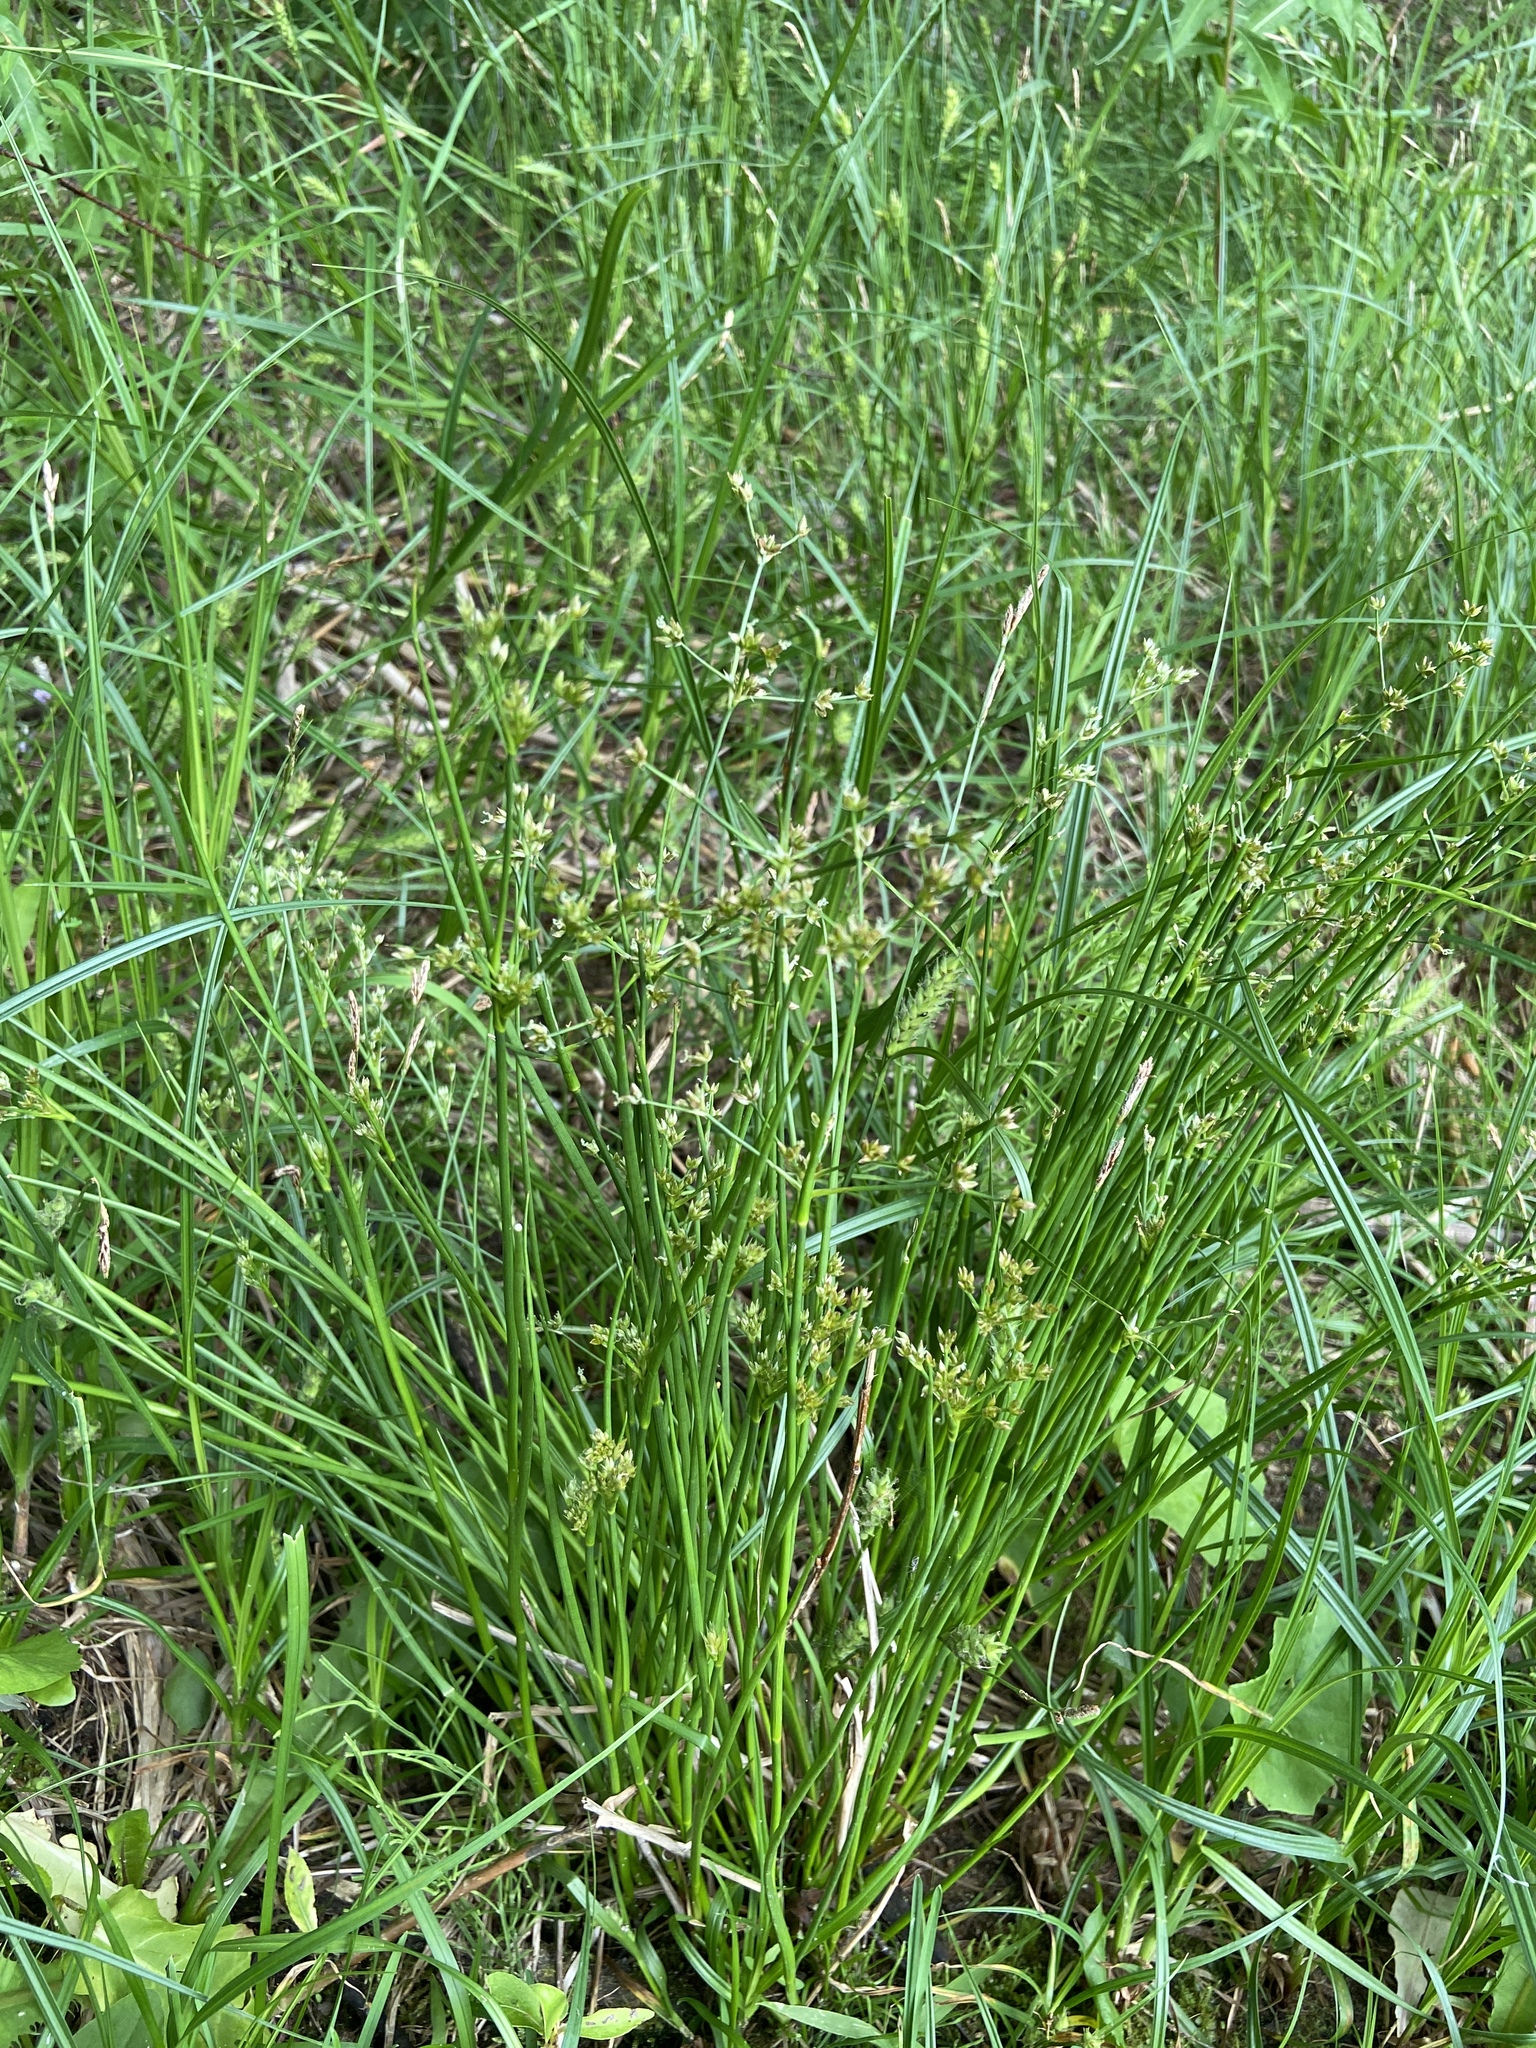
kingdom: Plantae
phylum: Tracheophyta
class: Liliopsida
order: Poales
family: Juncaceae
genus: Juncus
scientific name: Juncus articulatus
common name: Jointed rush
